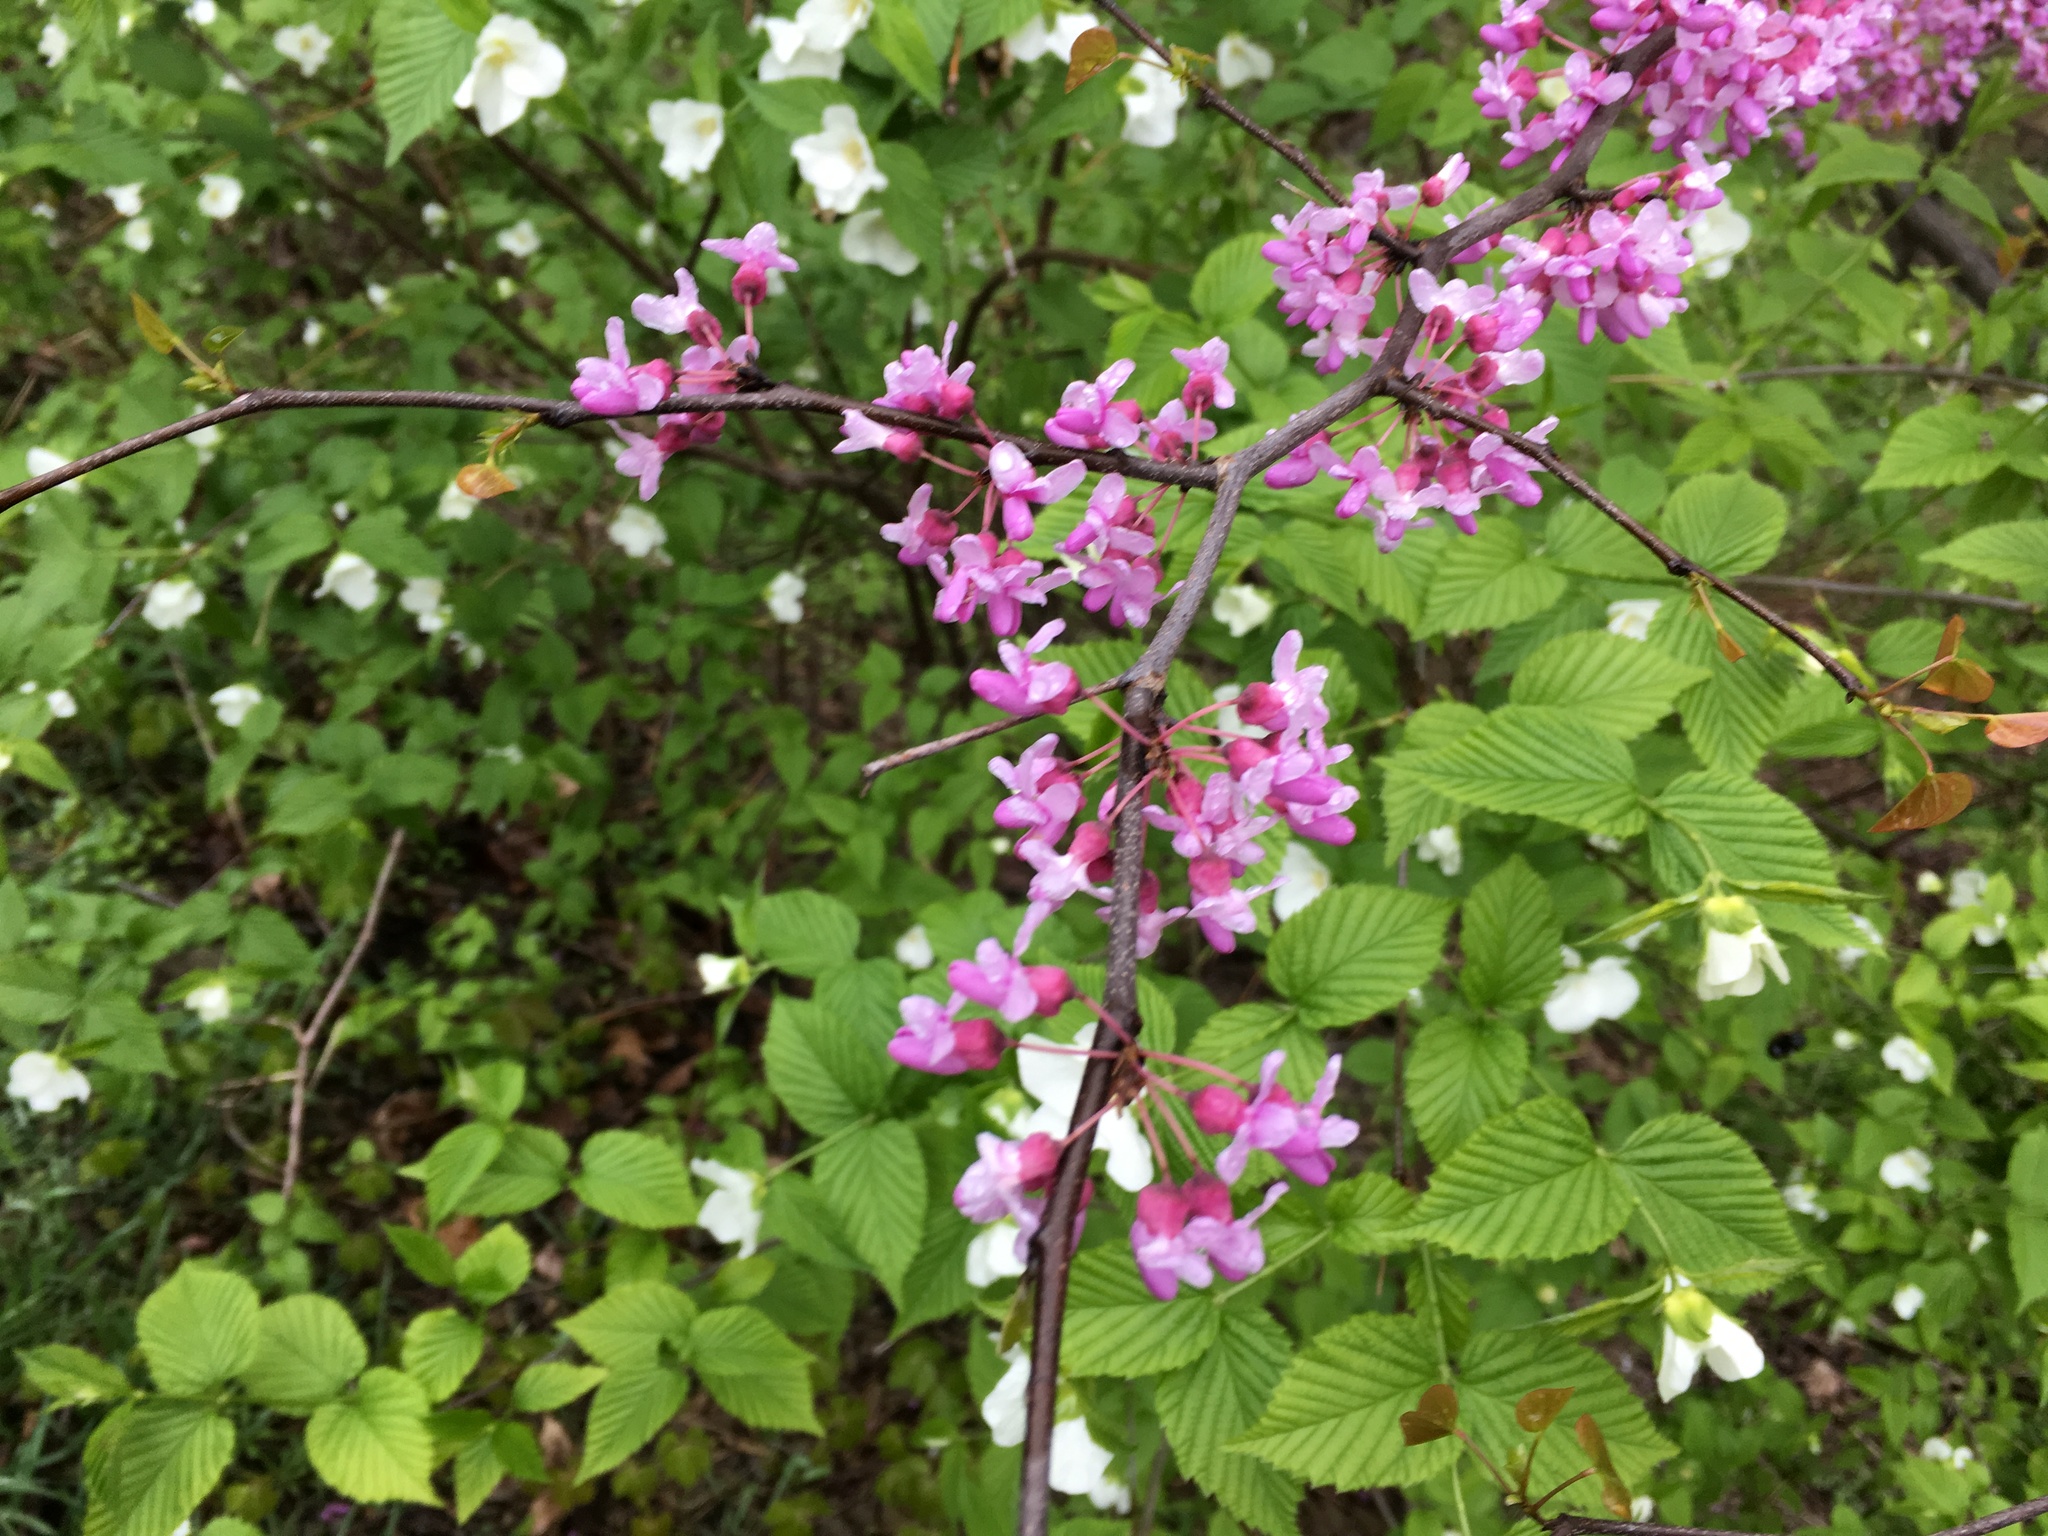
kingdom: Plantae
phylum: Tracheophyta
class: Magnoliopsida
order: Fabales
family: Fabaceae
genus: Cercis
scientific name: Cercis canadensis
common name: Eastern redbud
